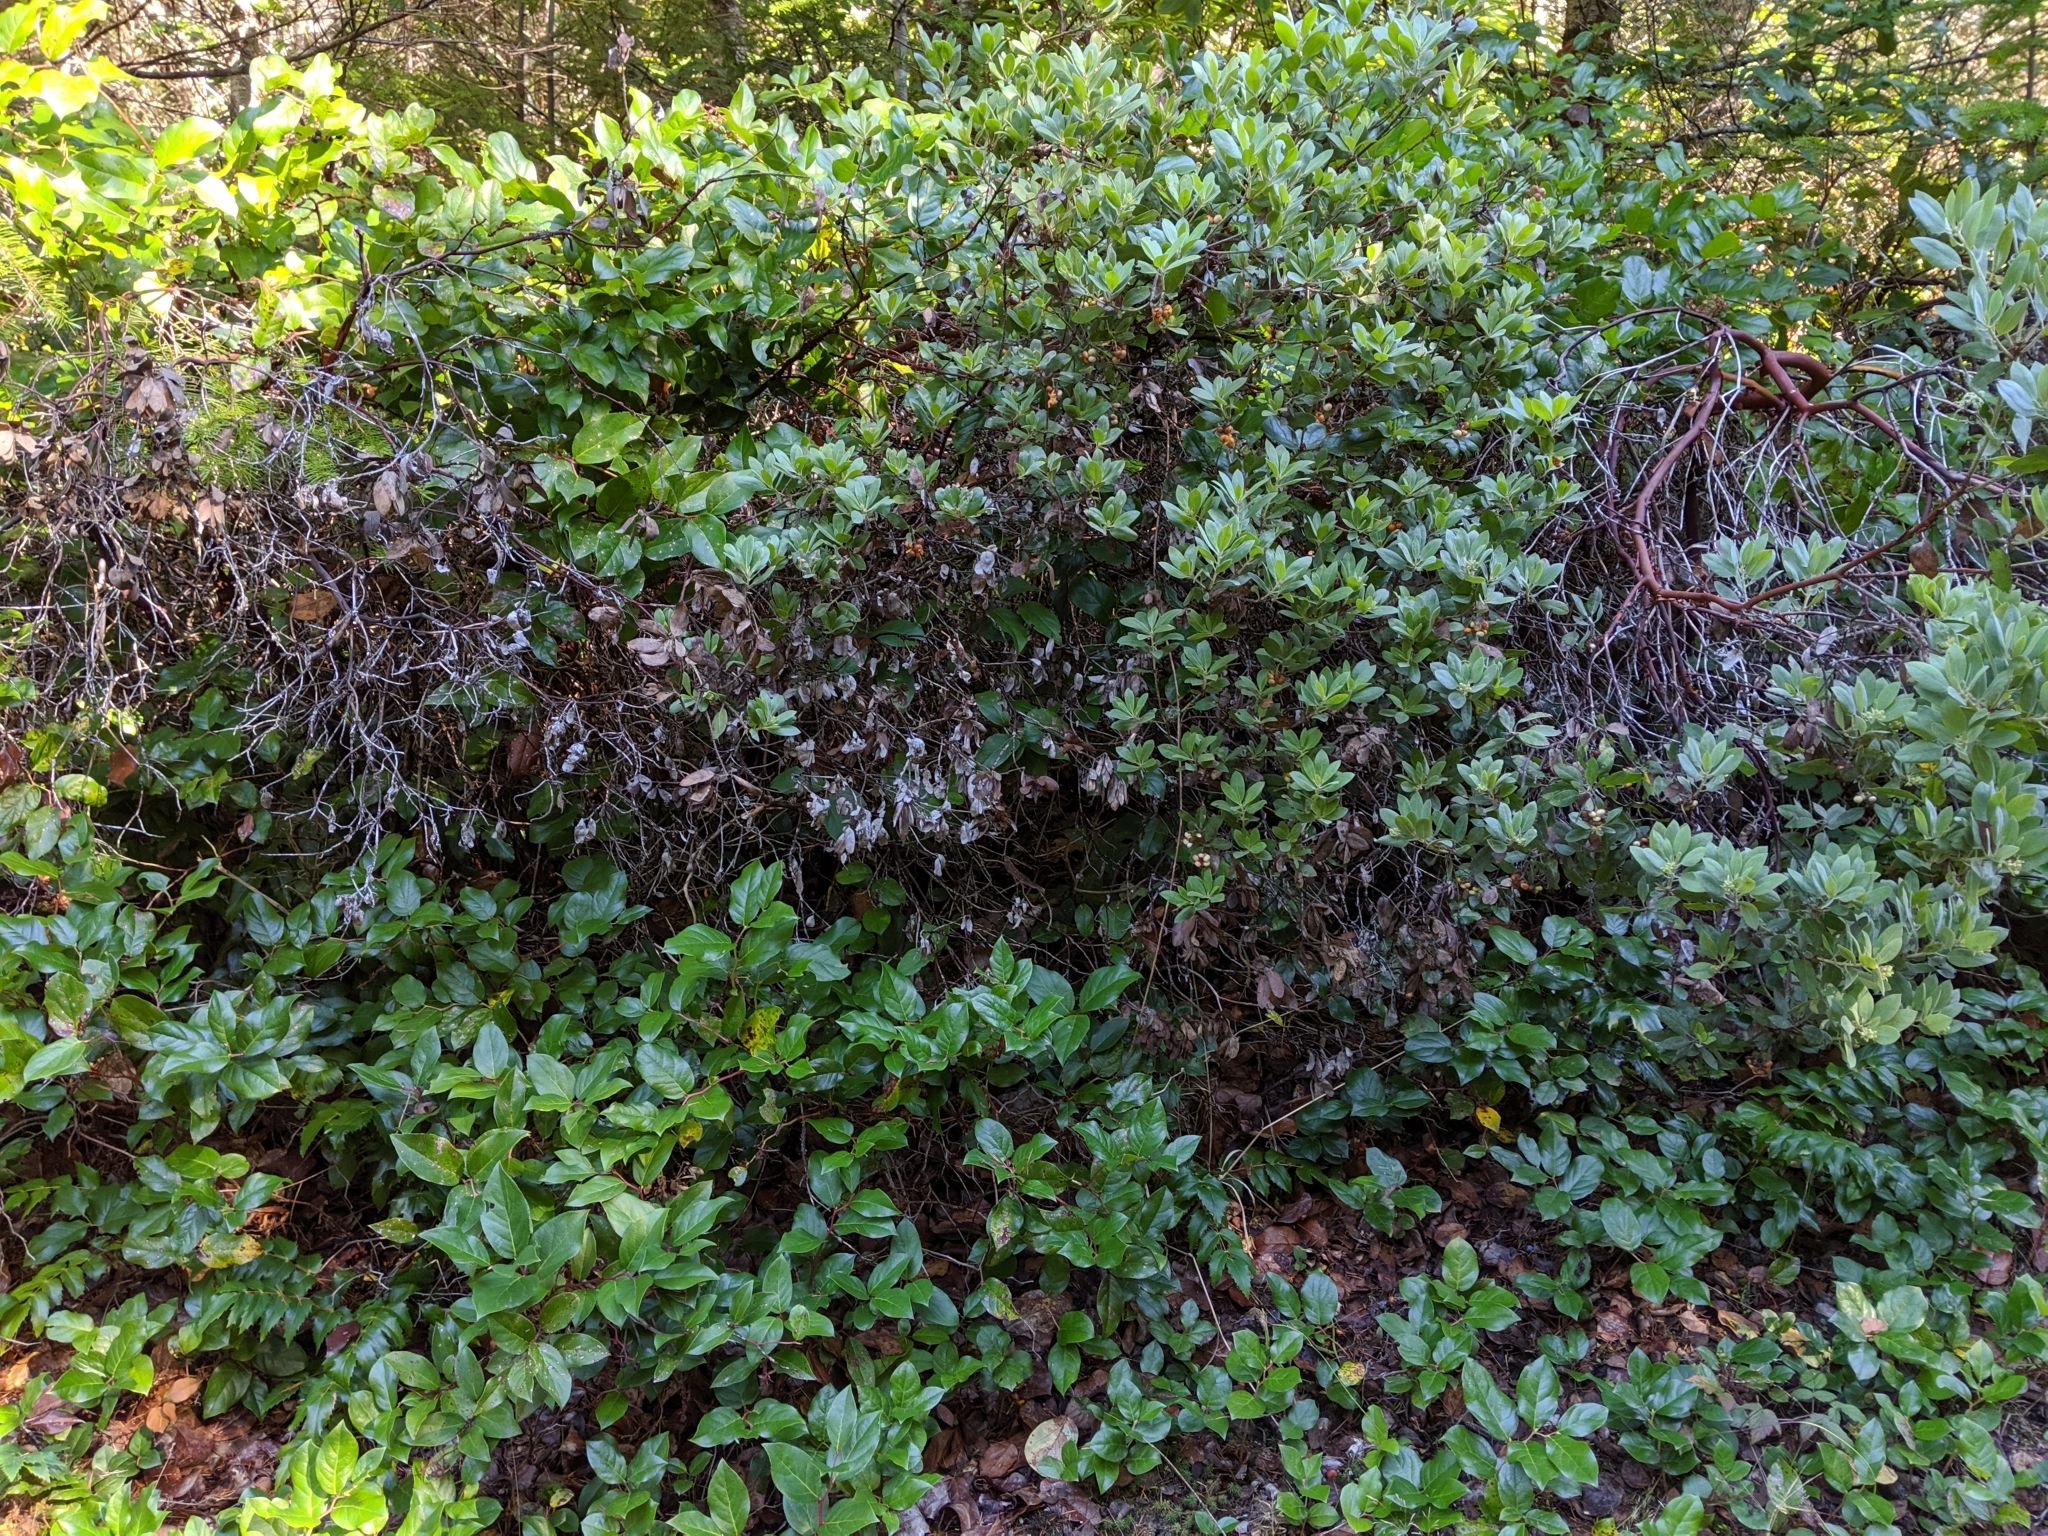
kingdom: Plantae
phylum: Tracheophyta
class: Magnoliopsida
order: Ericales
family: Ericaceae
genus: Arctostaphylos
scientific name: Arctostaphylos columbiana
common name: Bristly bearberry
